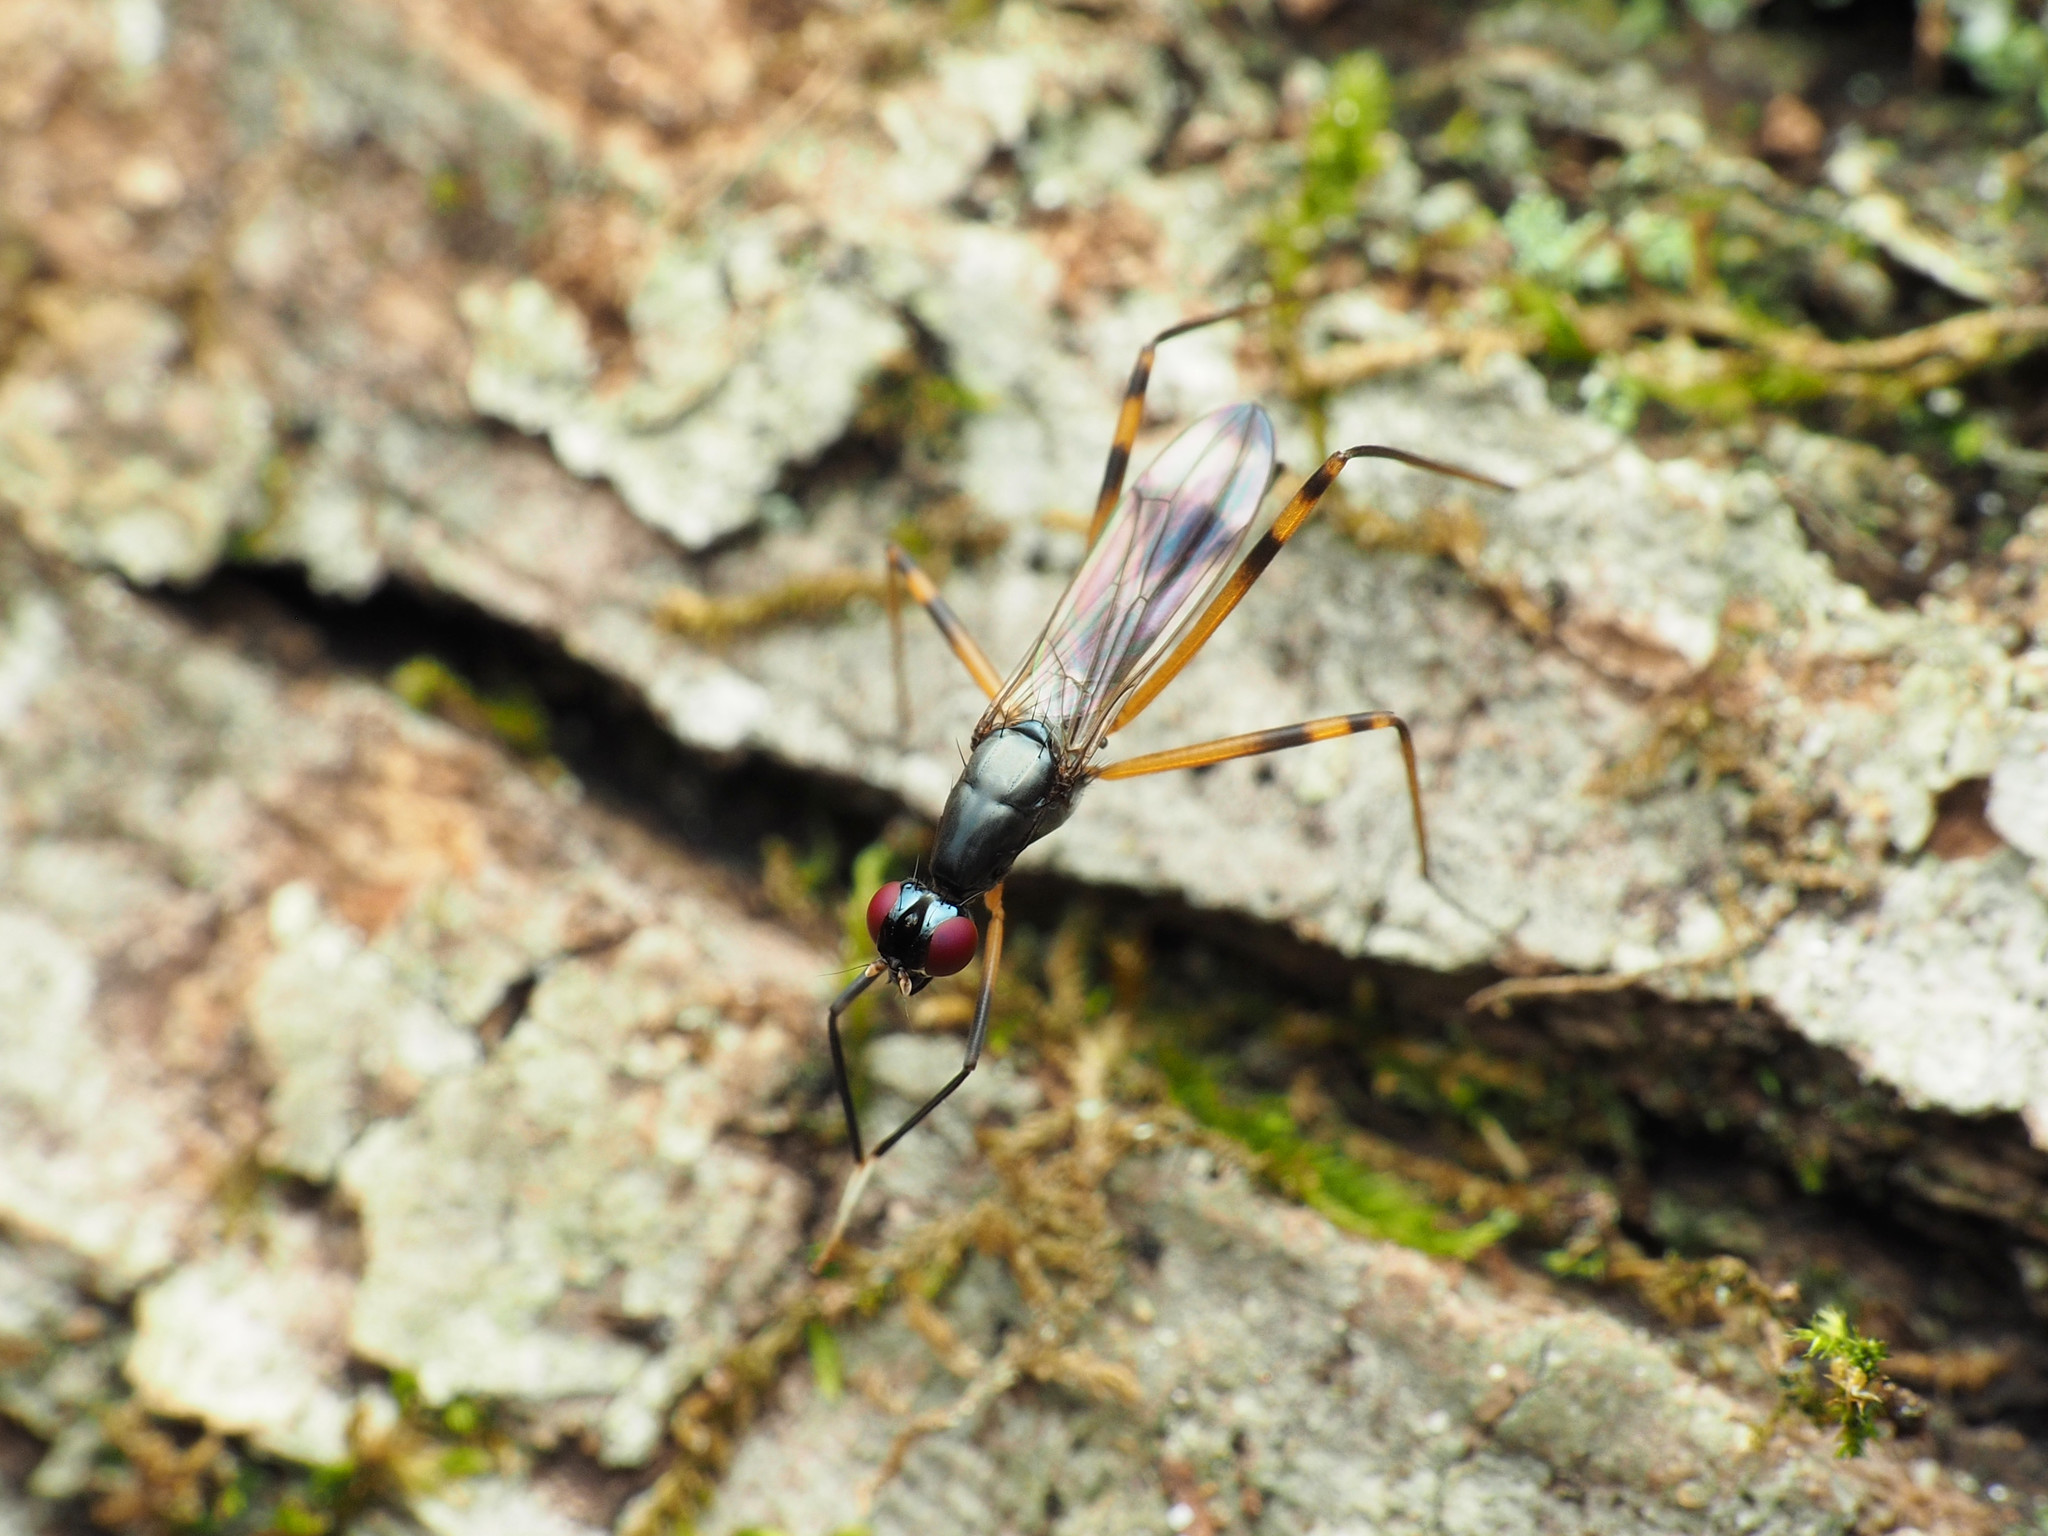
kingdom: Animalia
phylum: Arthropoda
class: Insecta
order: Diptera
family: Micropezidae
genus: Rainieria
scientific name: Rainieria antennaepes
